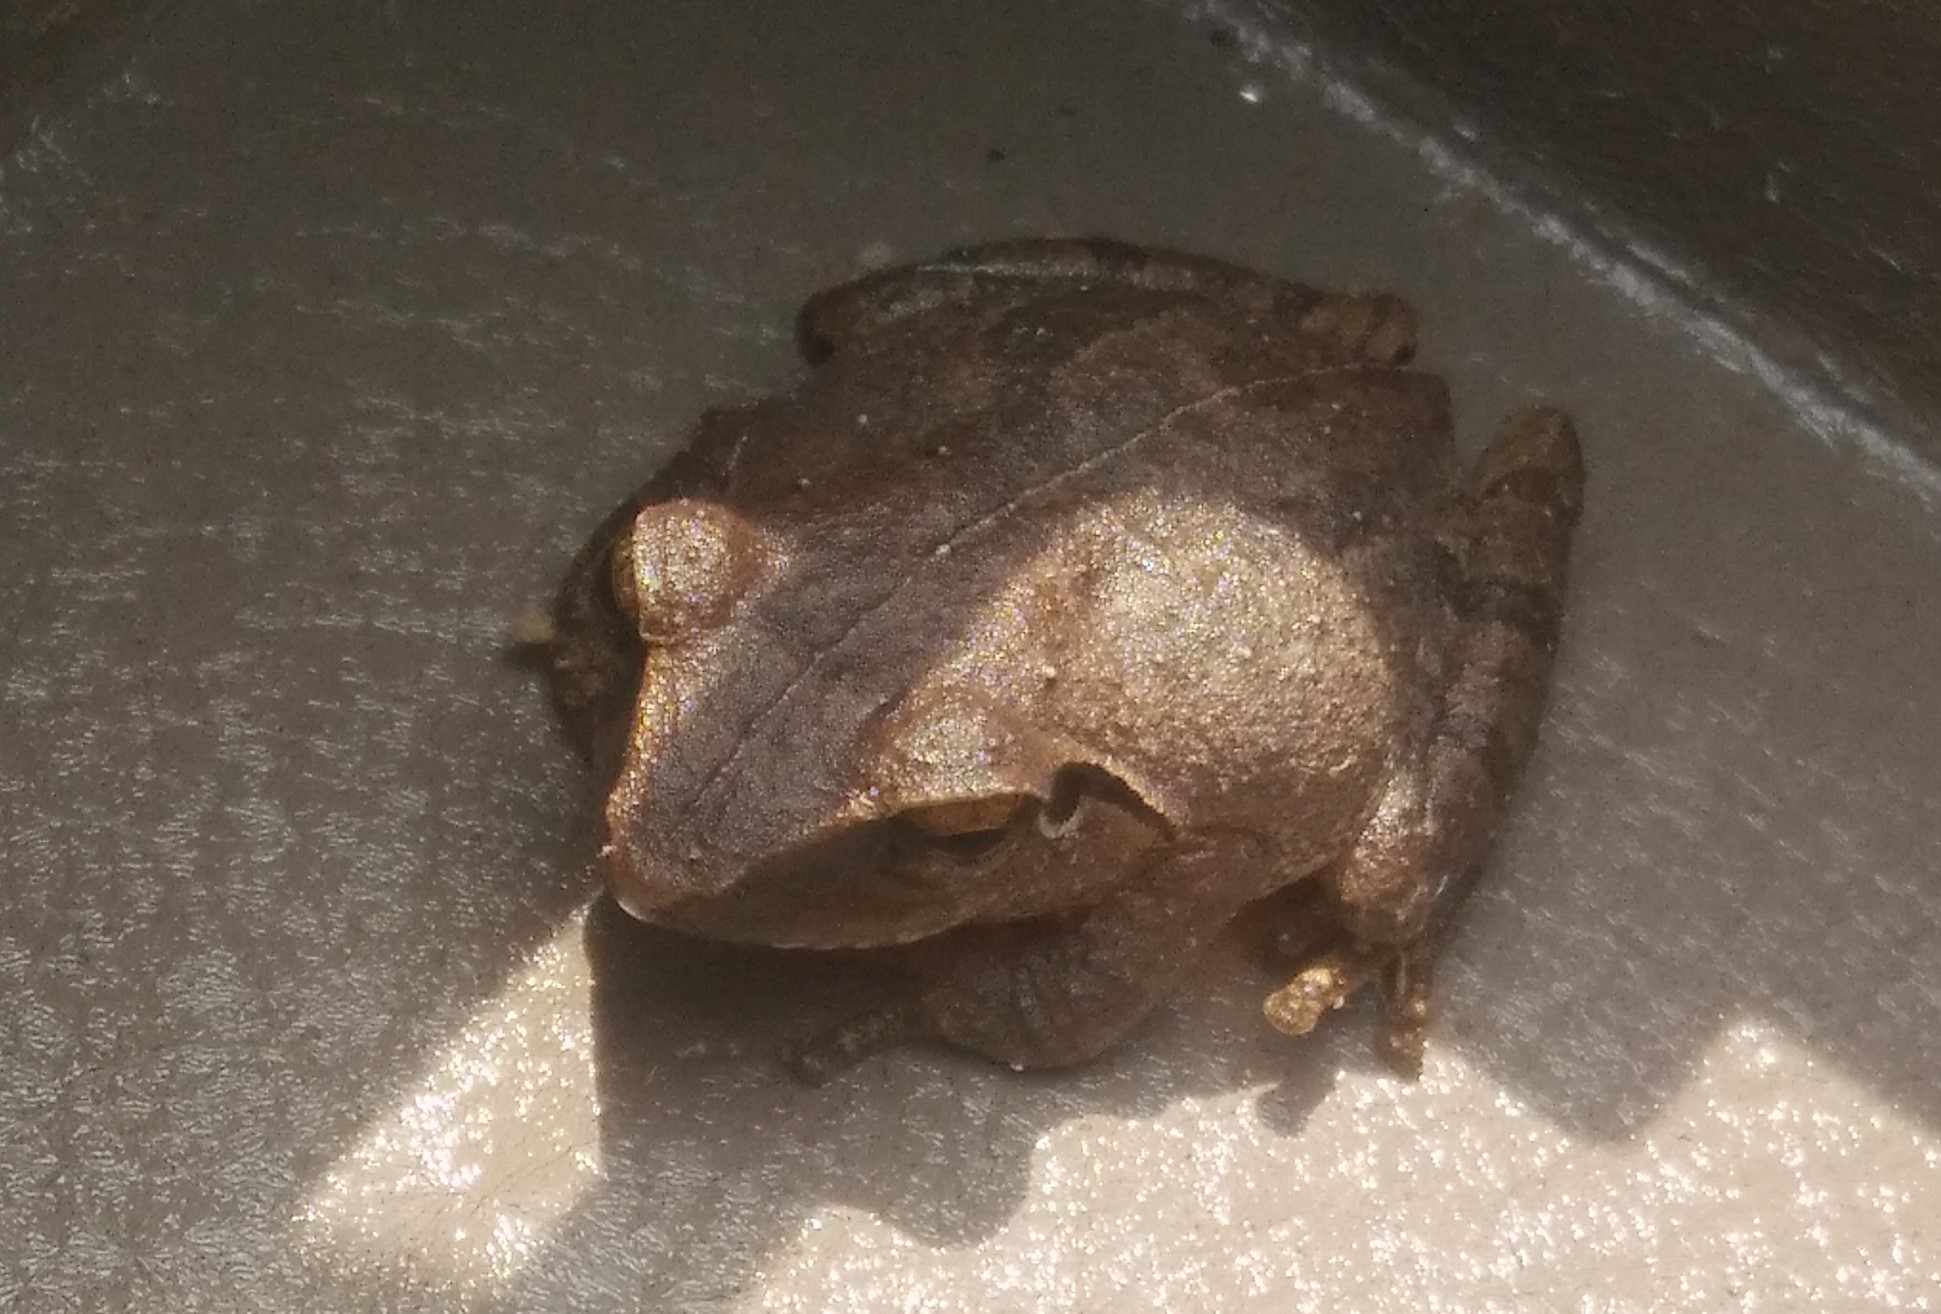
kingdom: Animalia
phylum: Chordata
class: Amphibia
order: Anura
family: Rhacophoridae
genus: Pseudophilautus
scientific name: Pseudophilautus wynaadensis
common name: Dark-eared bush frog
